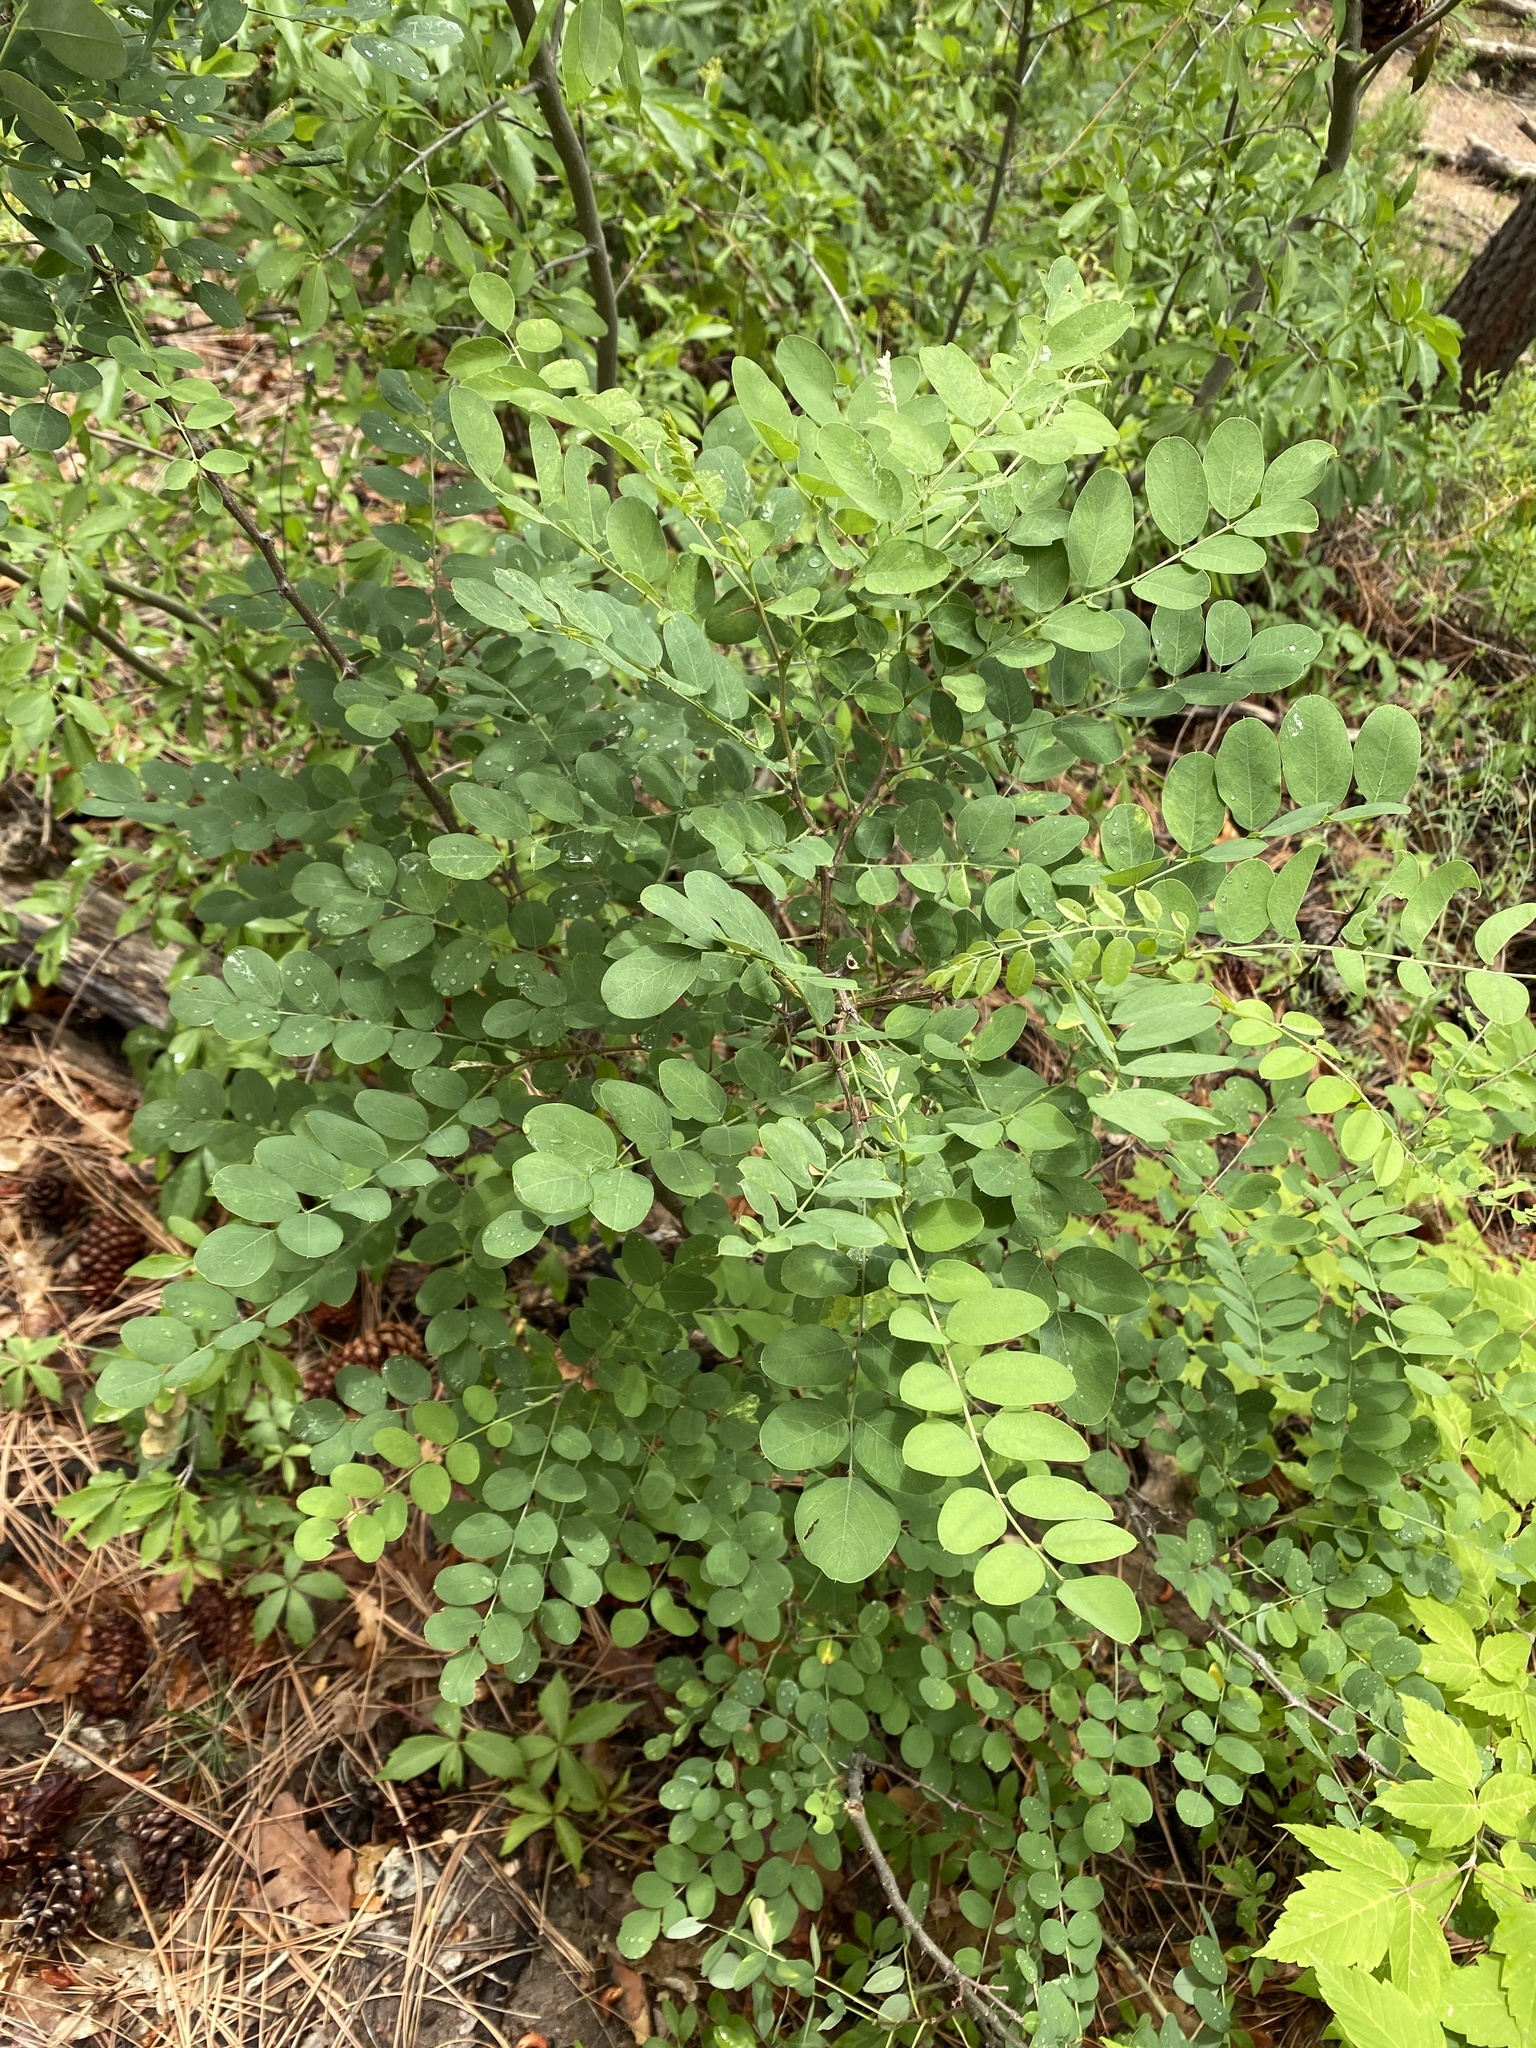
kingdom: Plantae
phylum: Tracheophyta
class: Magnoliopsida
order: Fabales
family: Fabaceae
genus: Robinia
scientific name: Robinia neomexicana
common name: New mexico locust
